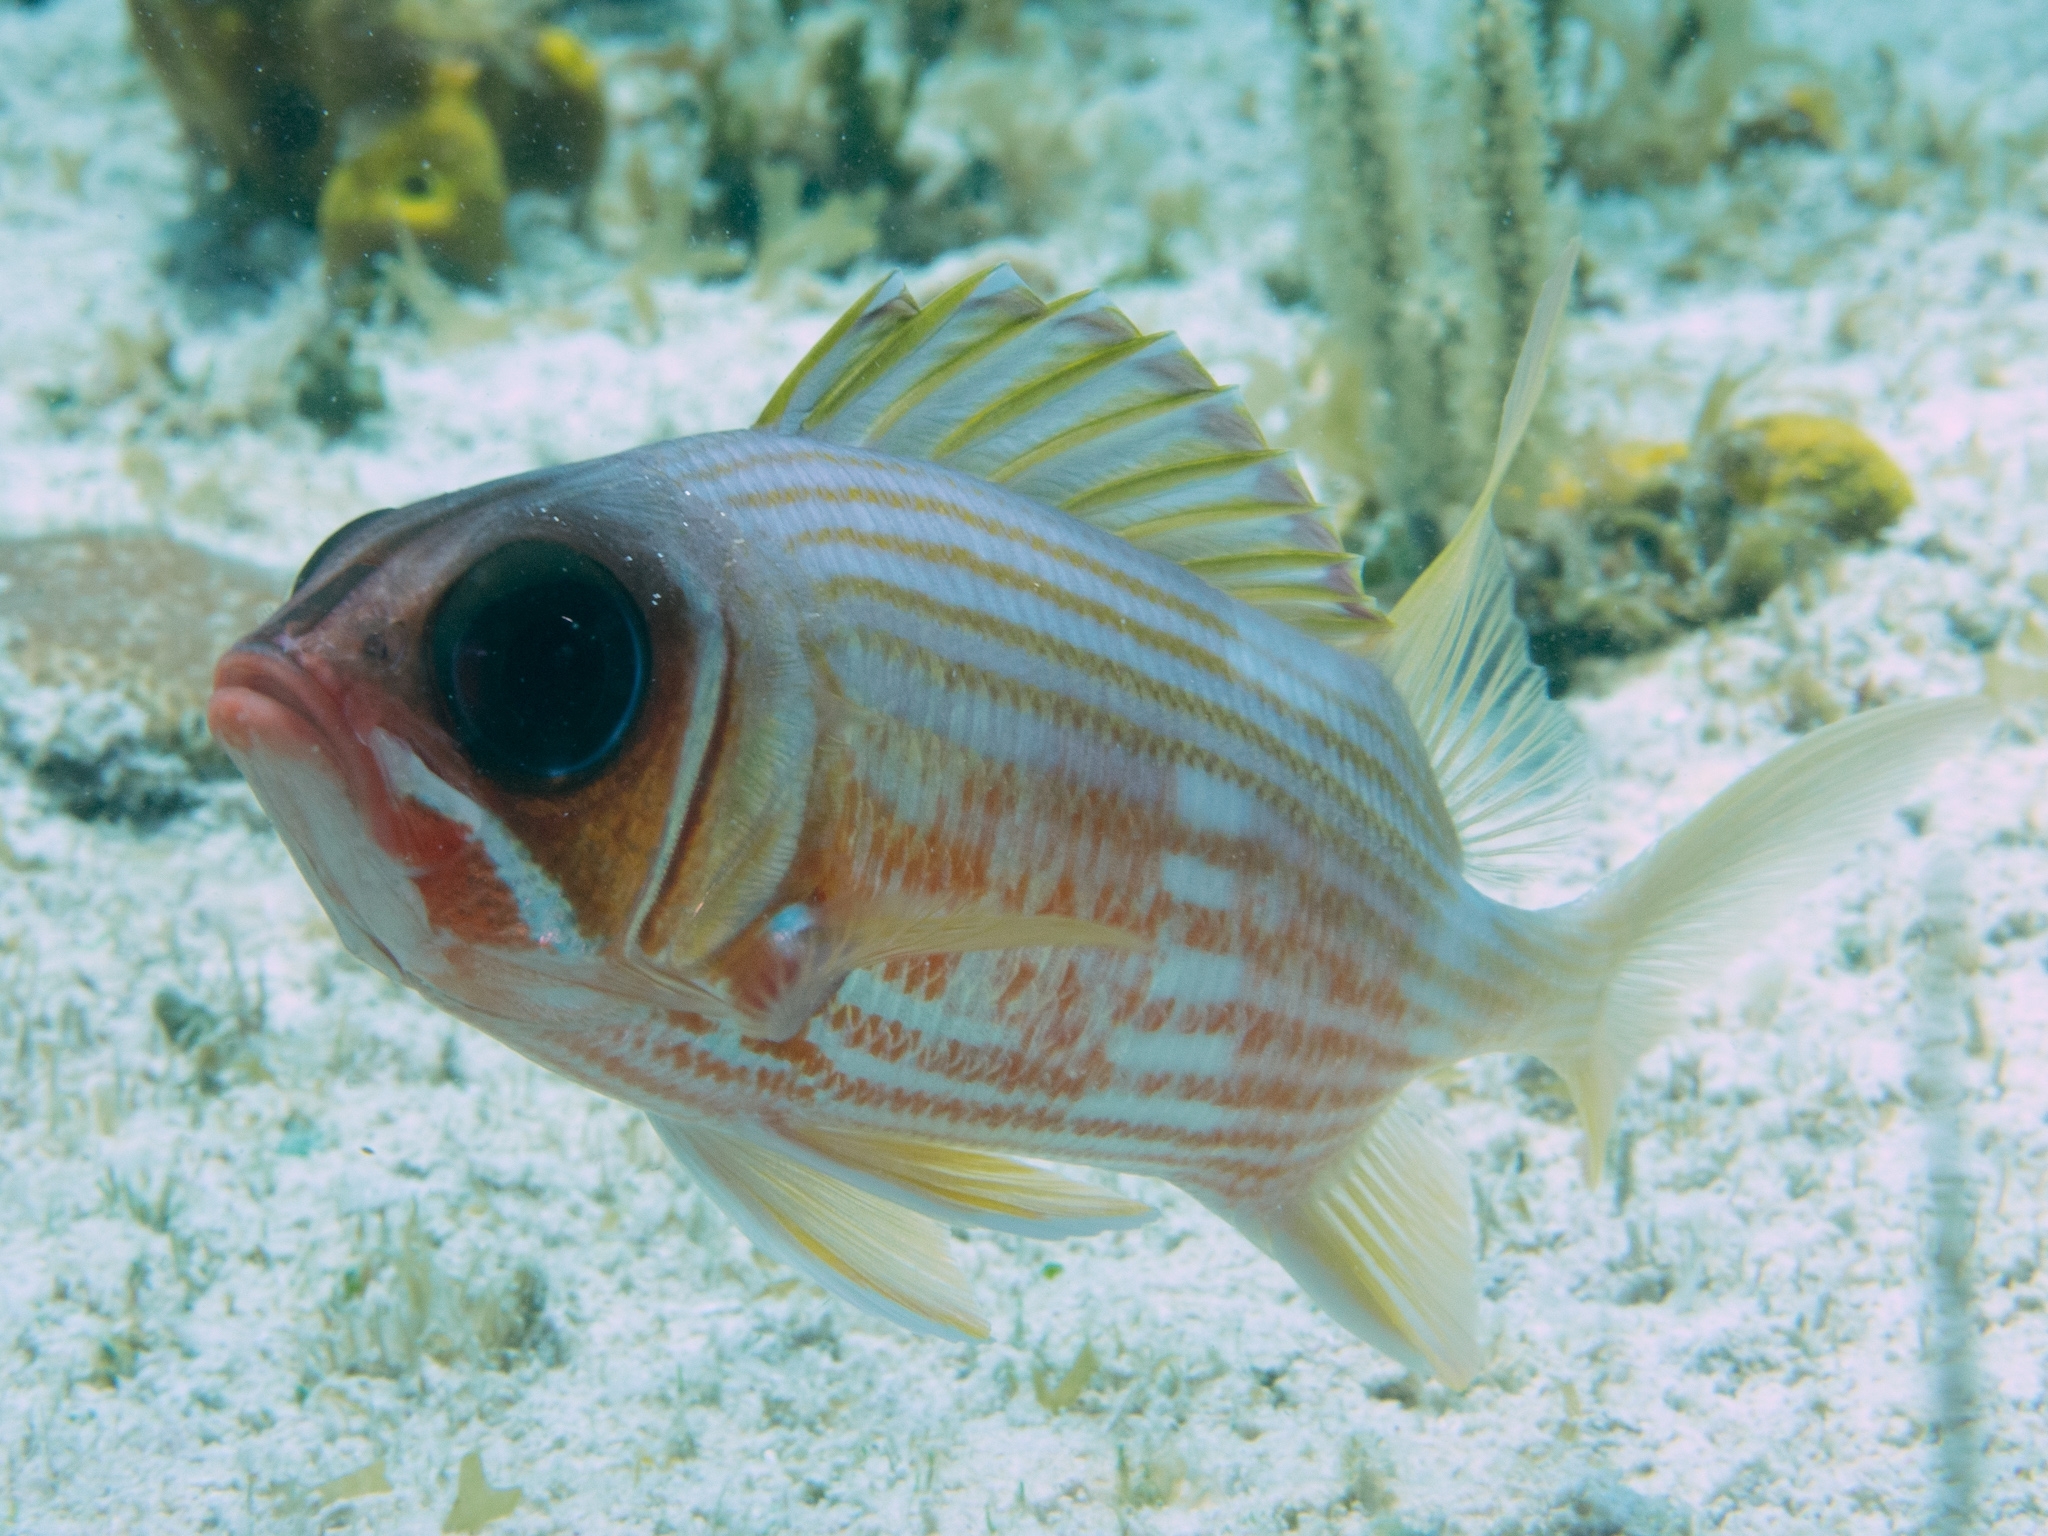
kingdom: Animalia
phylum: Chordata
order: Beryciformes
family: Holocentridae
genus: Holocentrus
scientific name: Holocentrus rufus
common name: Longspine squirrelfish
